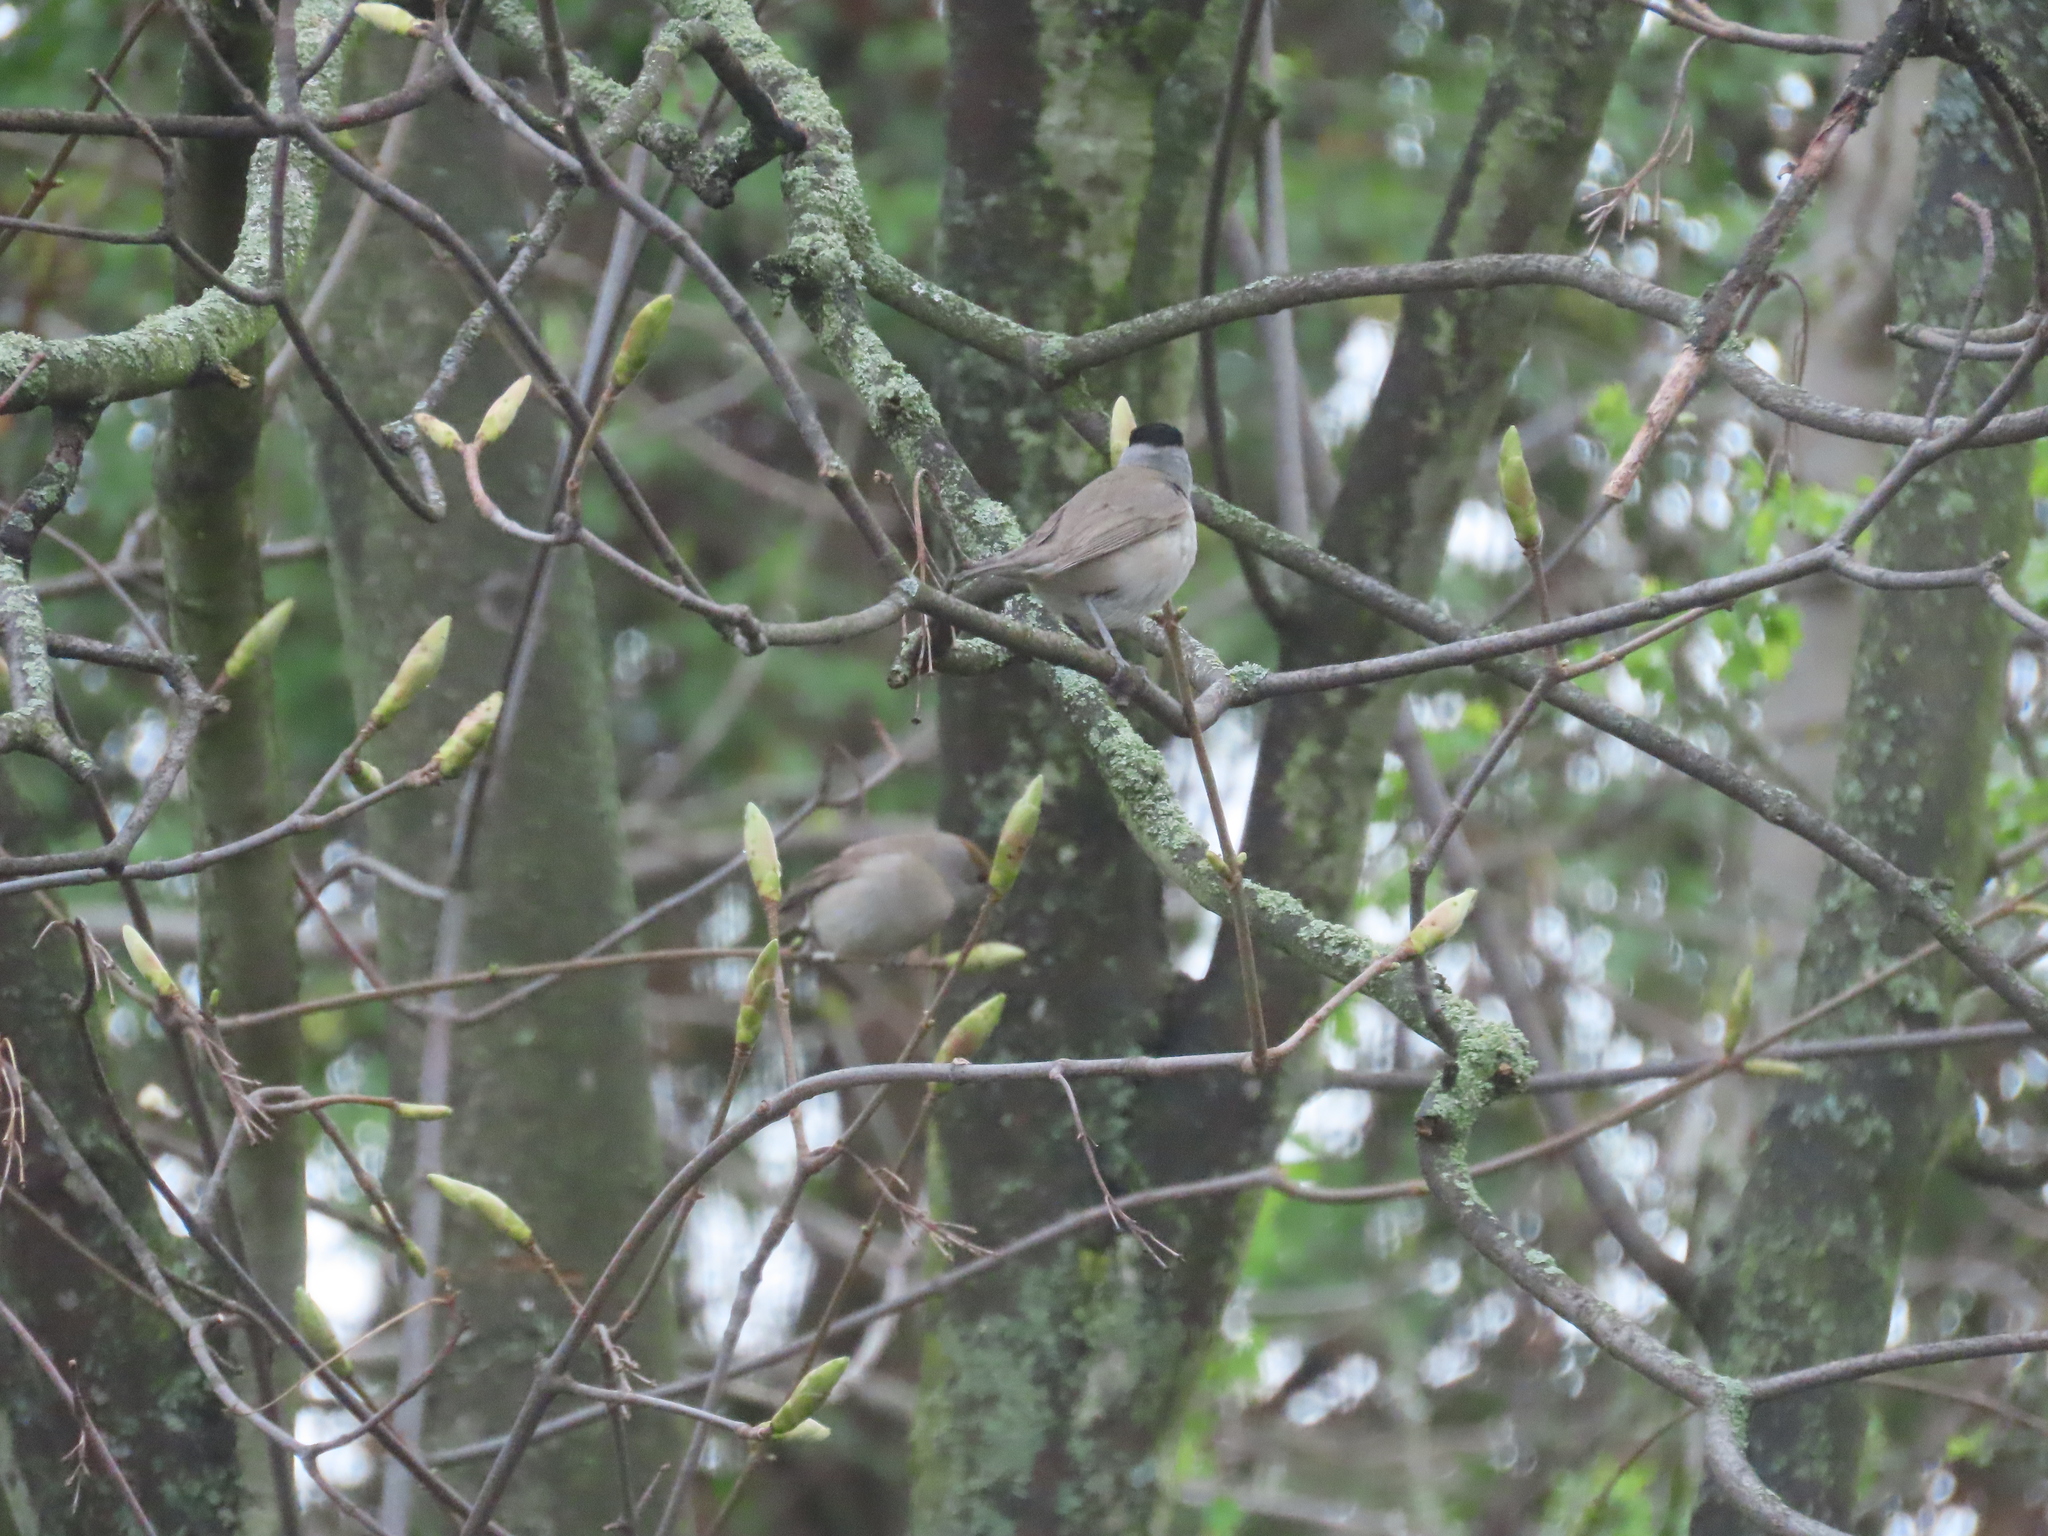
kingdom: Animalia
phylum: Chordata
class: Aves
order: Passeriformes
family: Sylviidae
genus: Sylvia
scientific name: Sylvia atricapilla
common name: Eurasian blackcap
